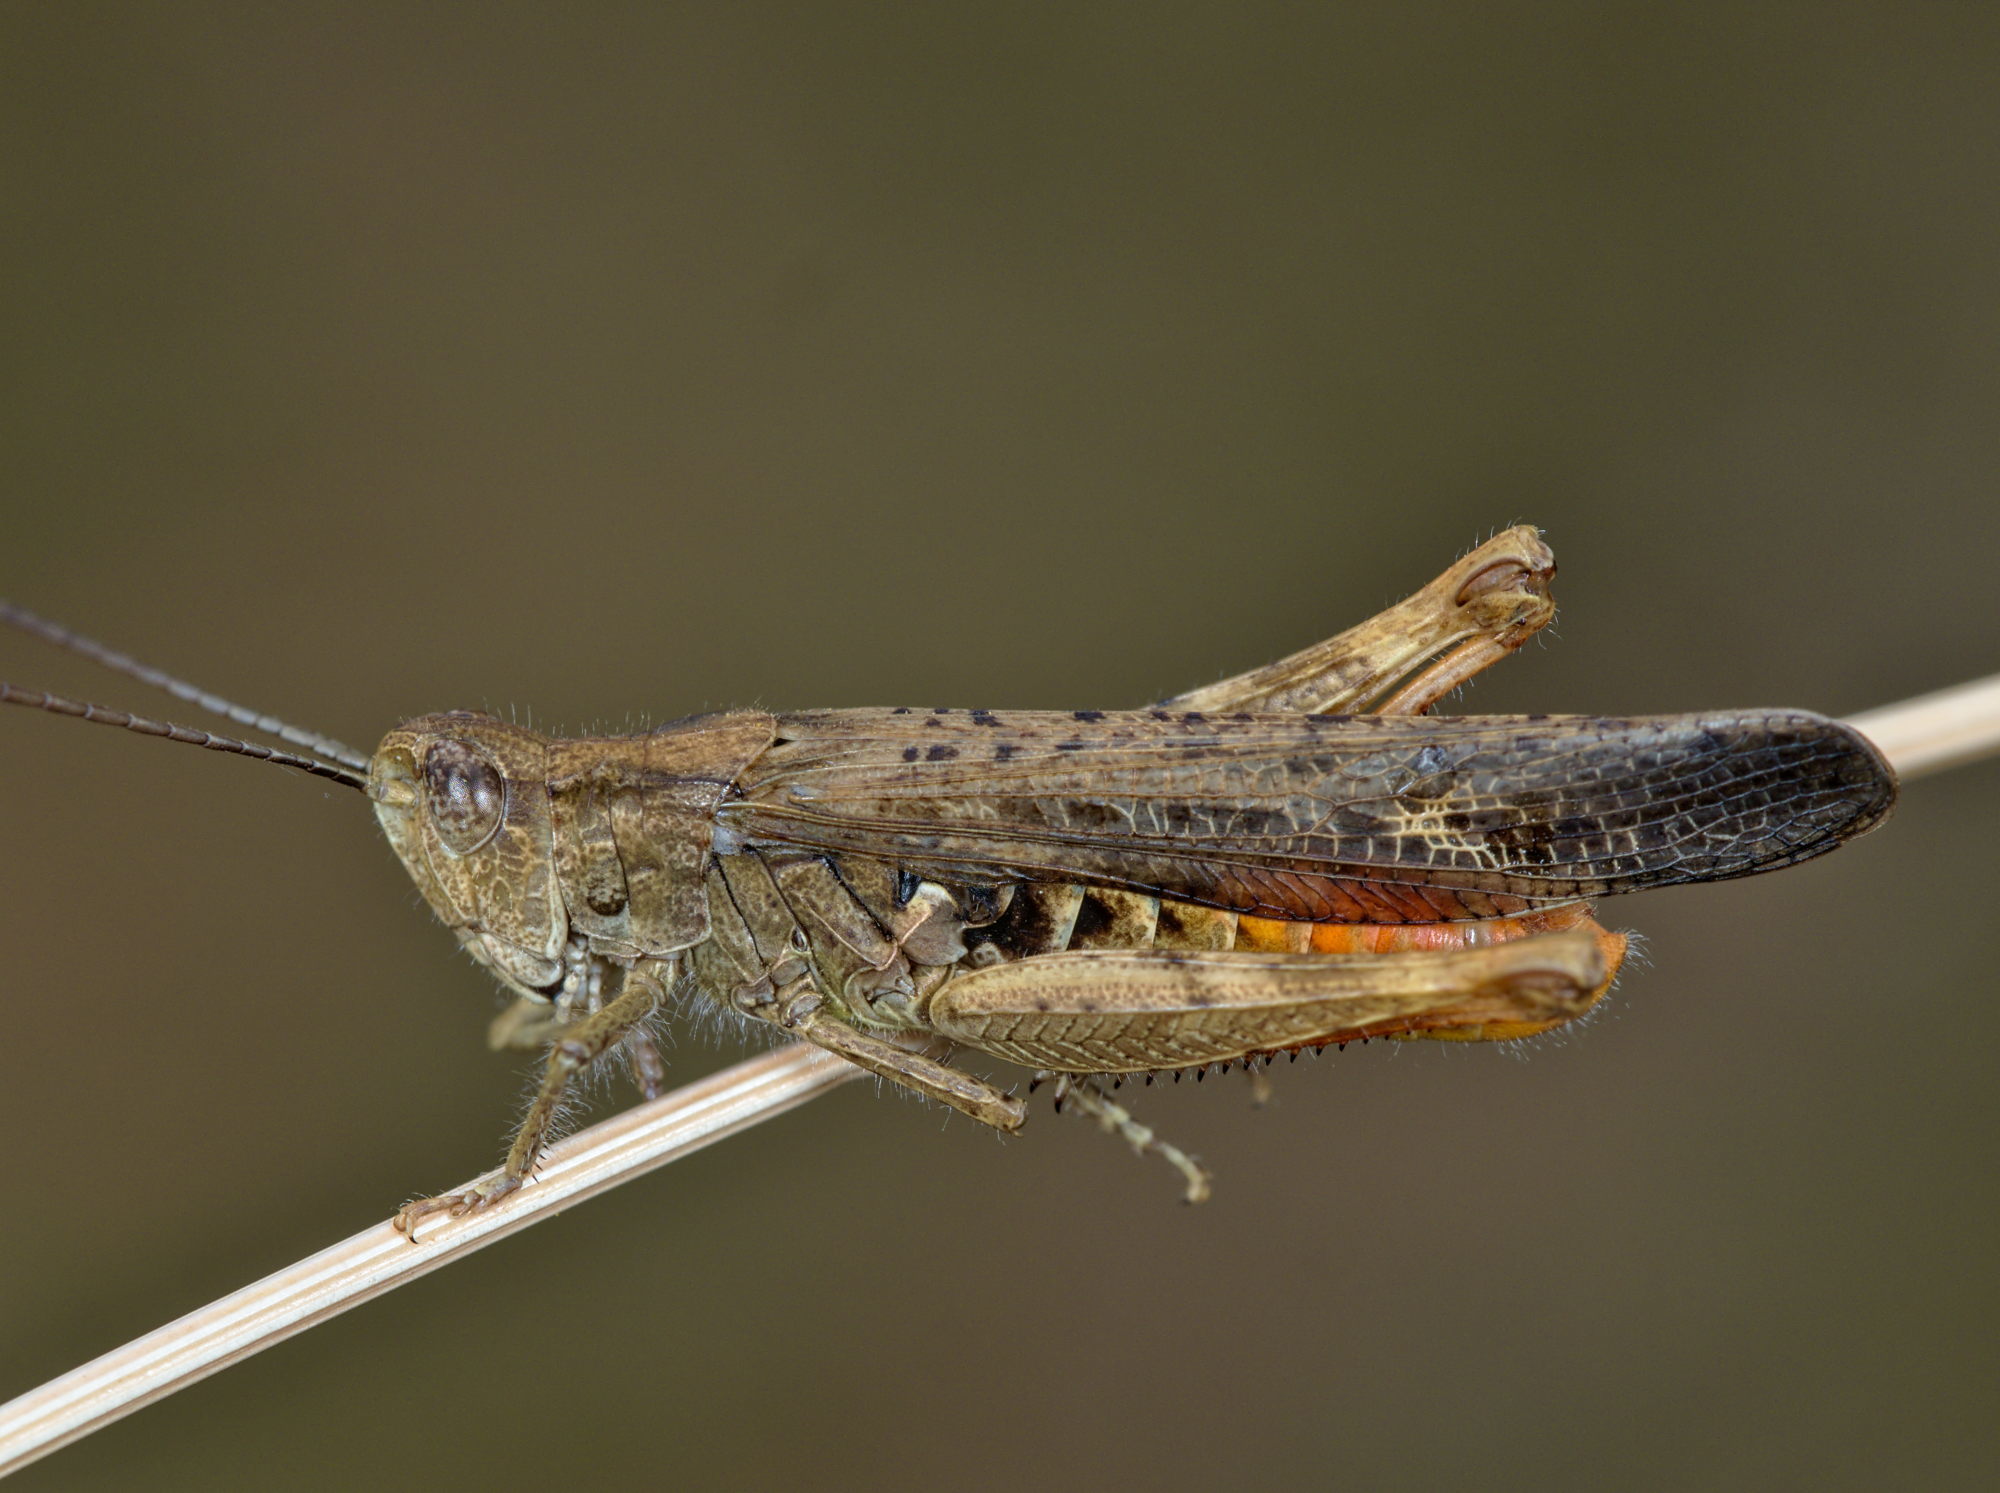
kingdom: Animalia
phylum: Arthropoda
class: Insecta
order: Orthoptera
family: Acrididae
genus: Chorthippus
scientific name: Chorthippus brunneus
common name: Field grasshopper
